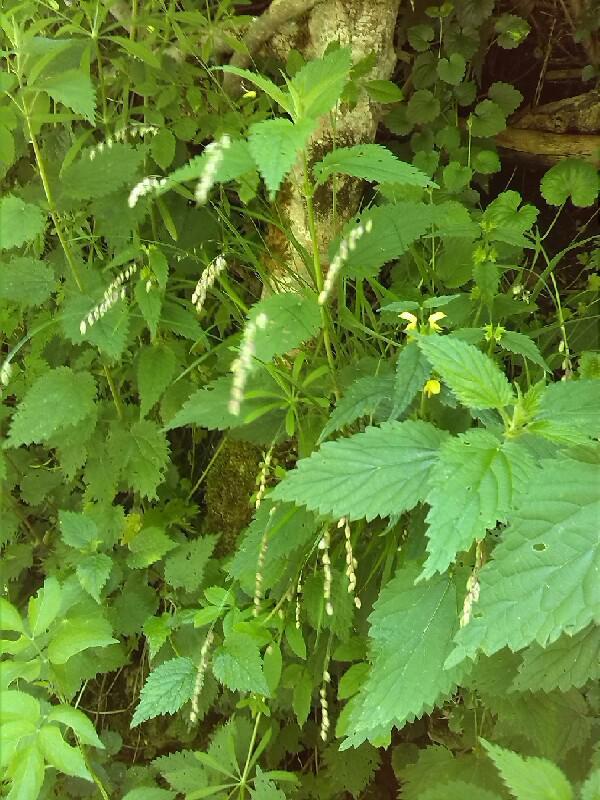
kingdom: Plantae
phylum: Tracheophyta
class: Liliopsida
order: Poales
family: Poaceae
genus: Melica
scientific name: Melica nutans
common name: Mountain melick
